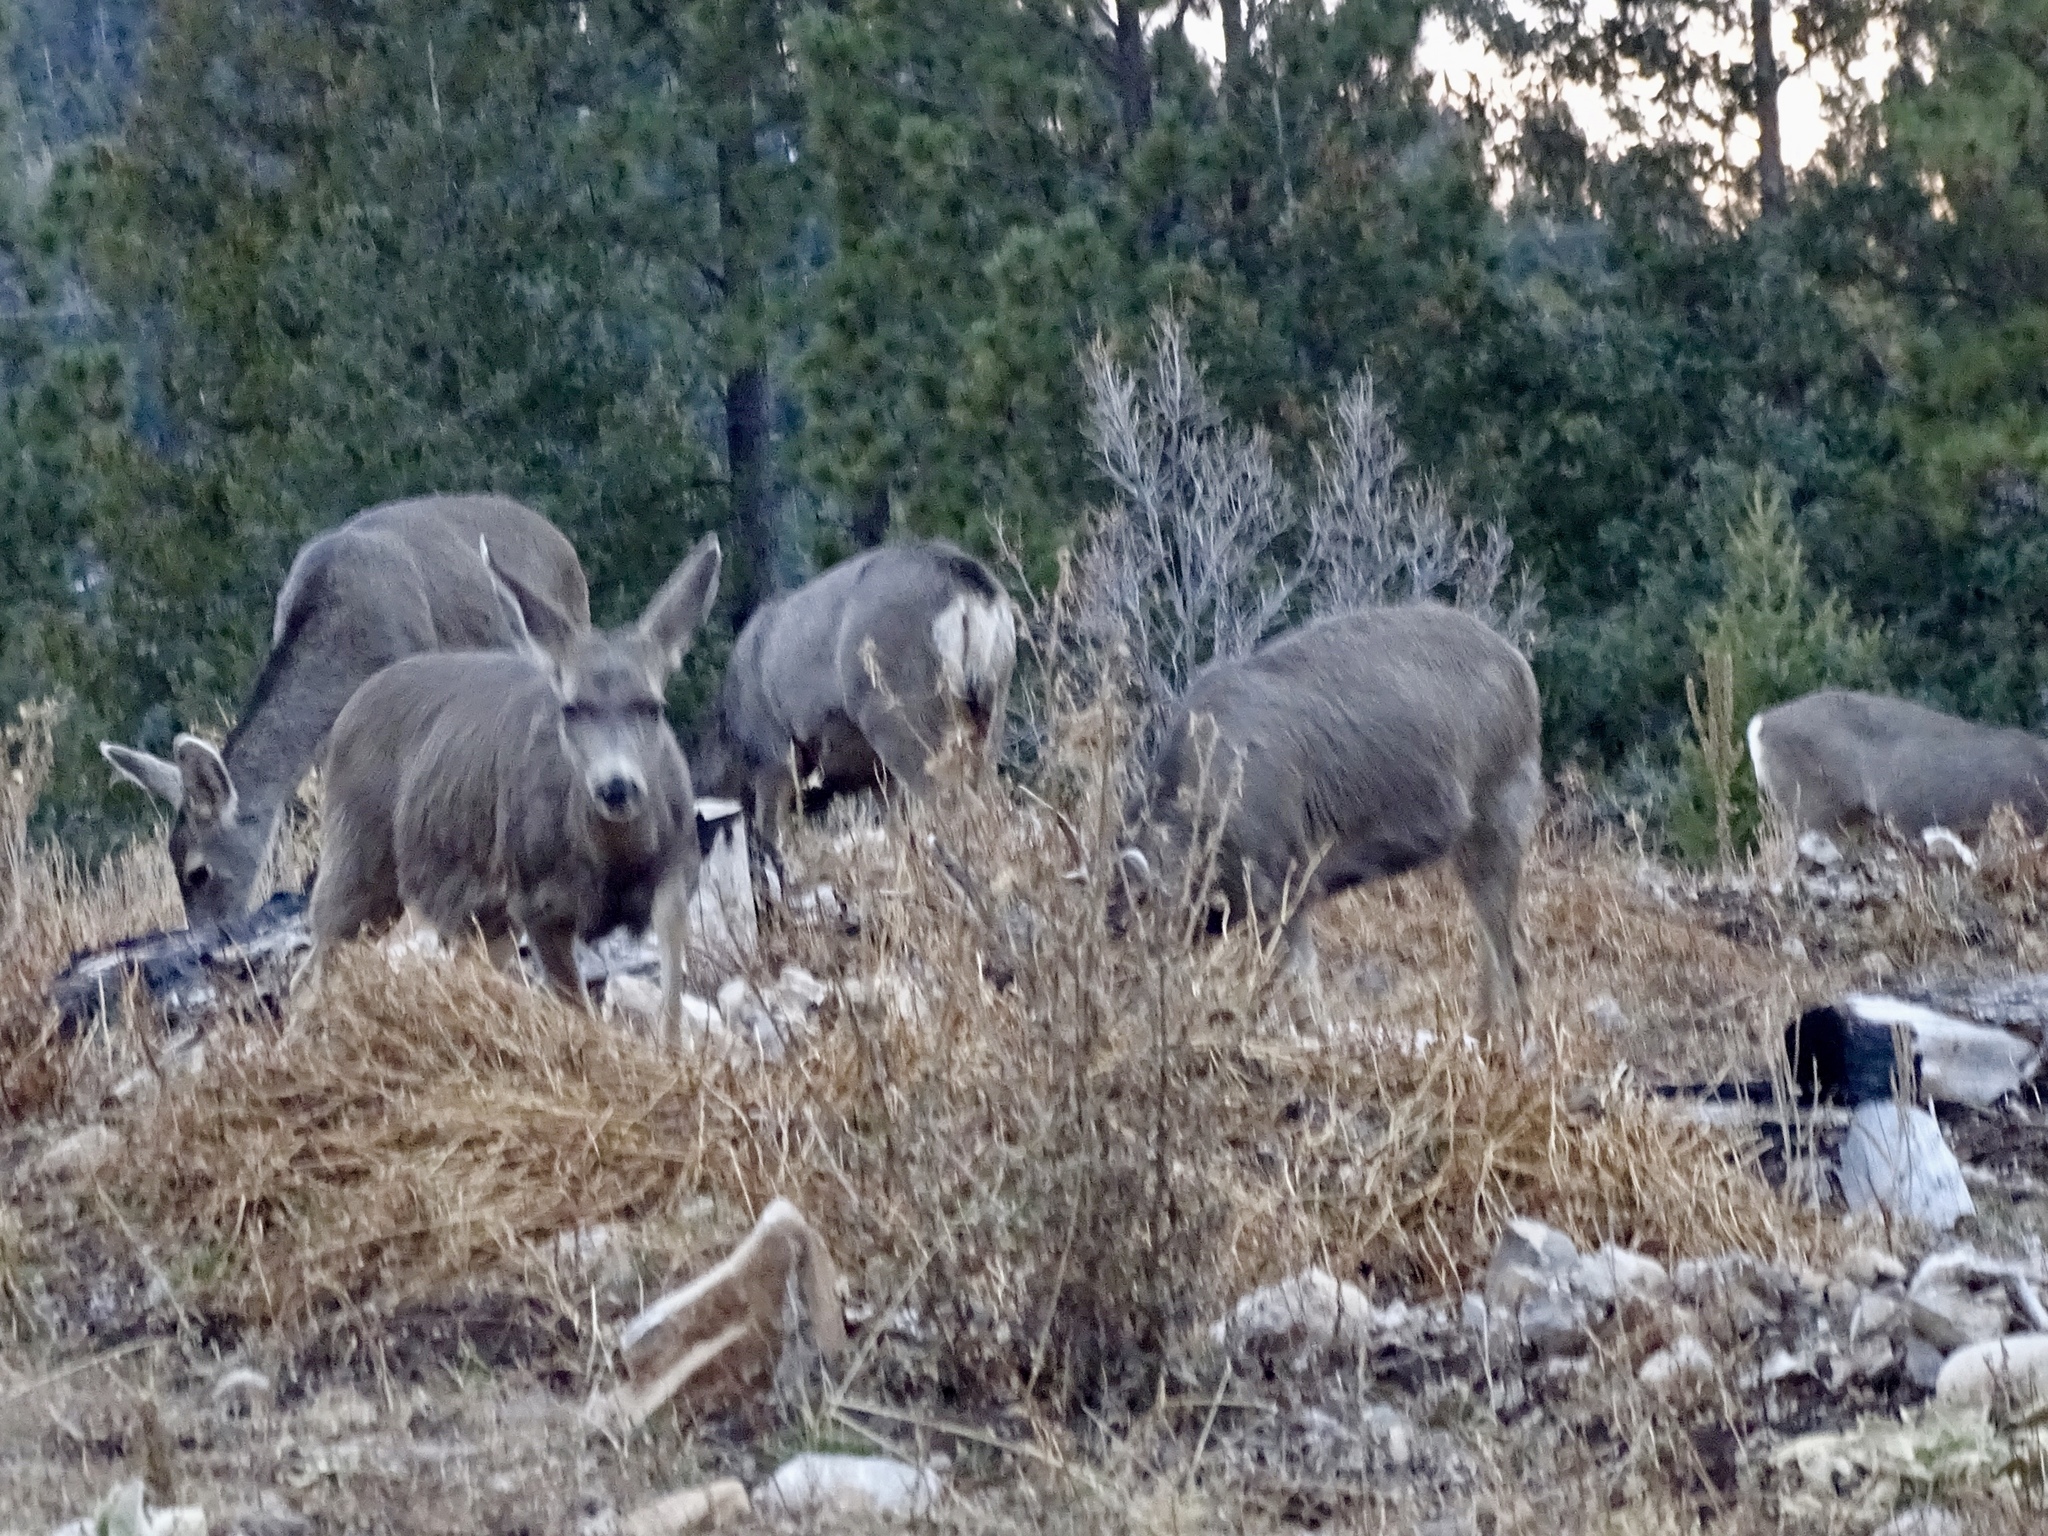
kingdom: Animalia
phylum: Chordata
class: Mammalia
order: Artiodactyla
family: Cervidae
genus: Odocoileus
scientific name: Odocoileus hemionus
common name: Mule deer
